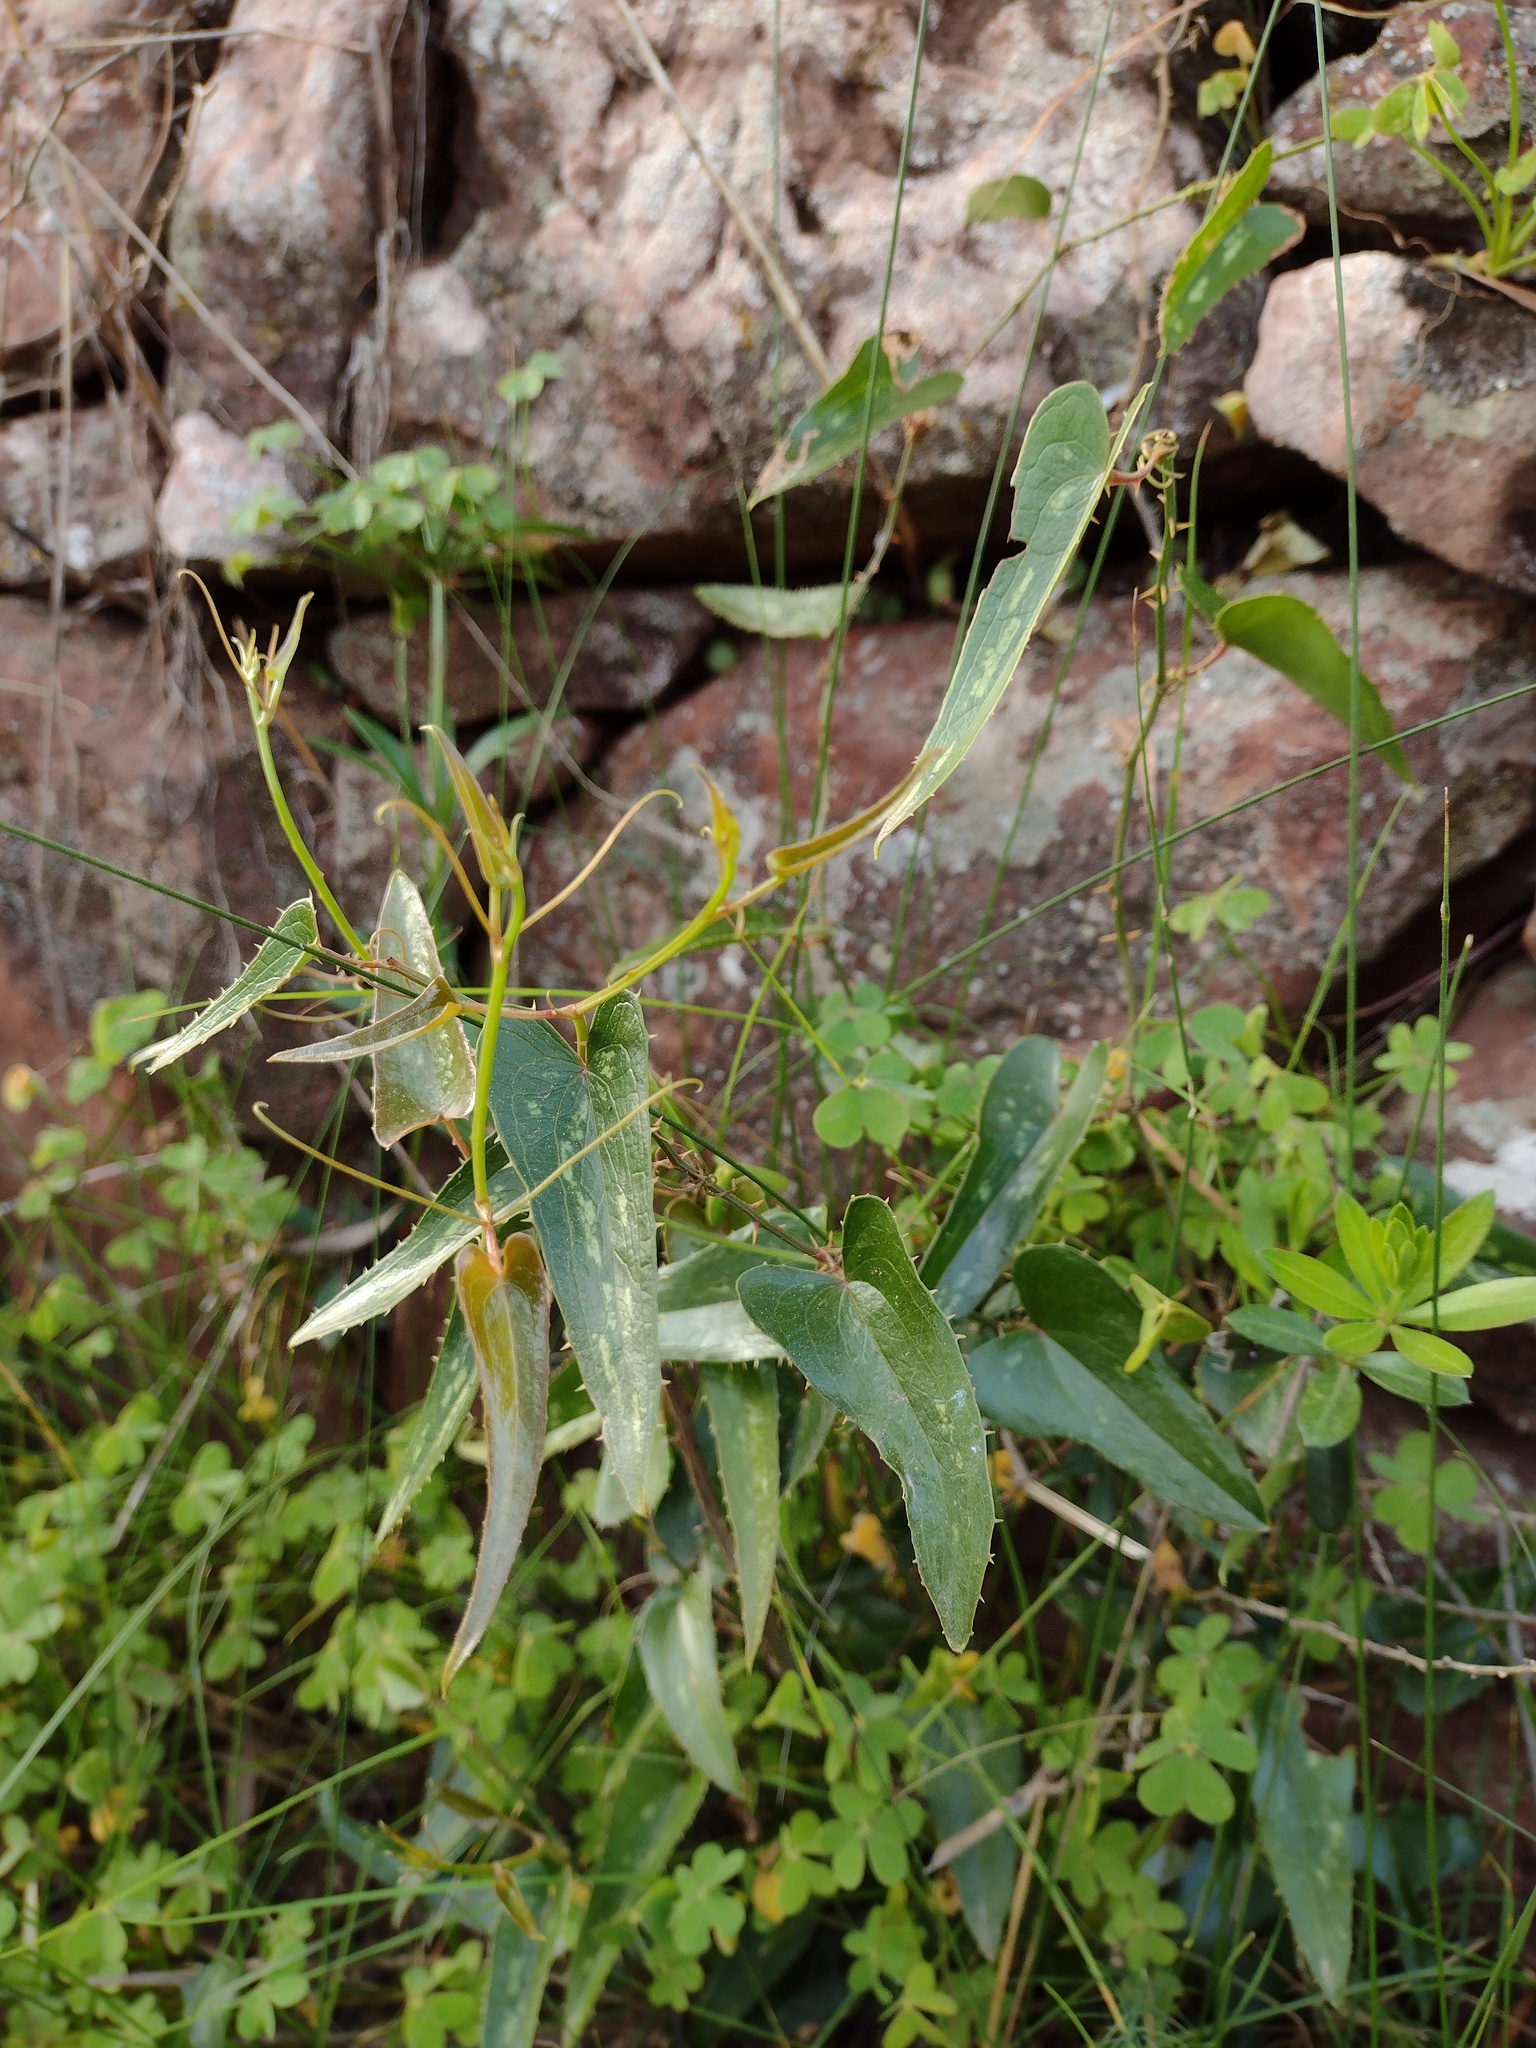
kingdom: Plantae
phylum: Tracheophyta
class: Liliopsida
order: Liliales
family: Smilacaceae
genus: Smilax
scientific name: Smilax aspera
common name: Common smilax
